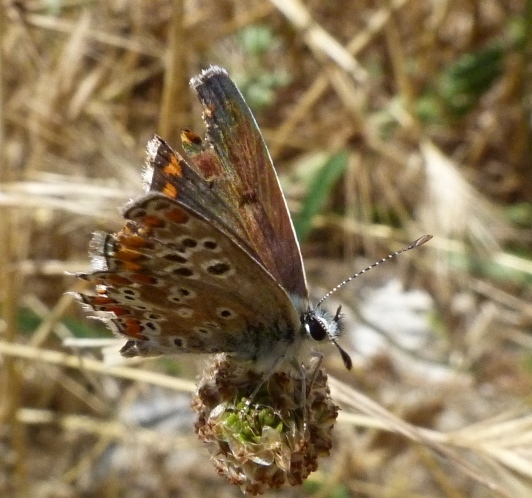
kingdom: Animalia
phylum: Arthropoda
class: Insecta
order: Lepidoptera
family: Lycaenidae
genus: Aricia
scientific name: Aricia cramera
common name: Eschscholtz´s brown  argus
